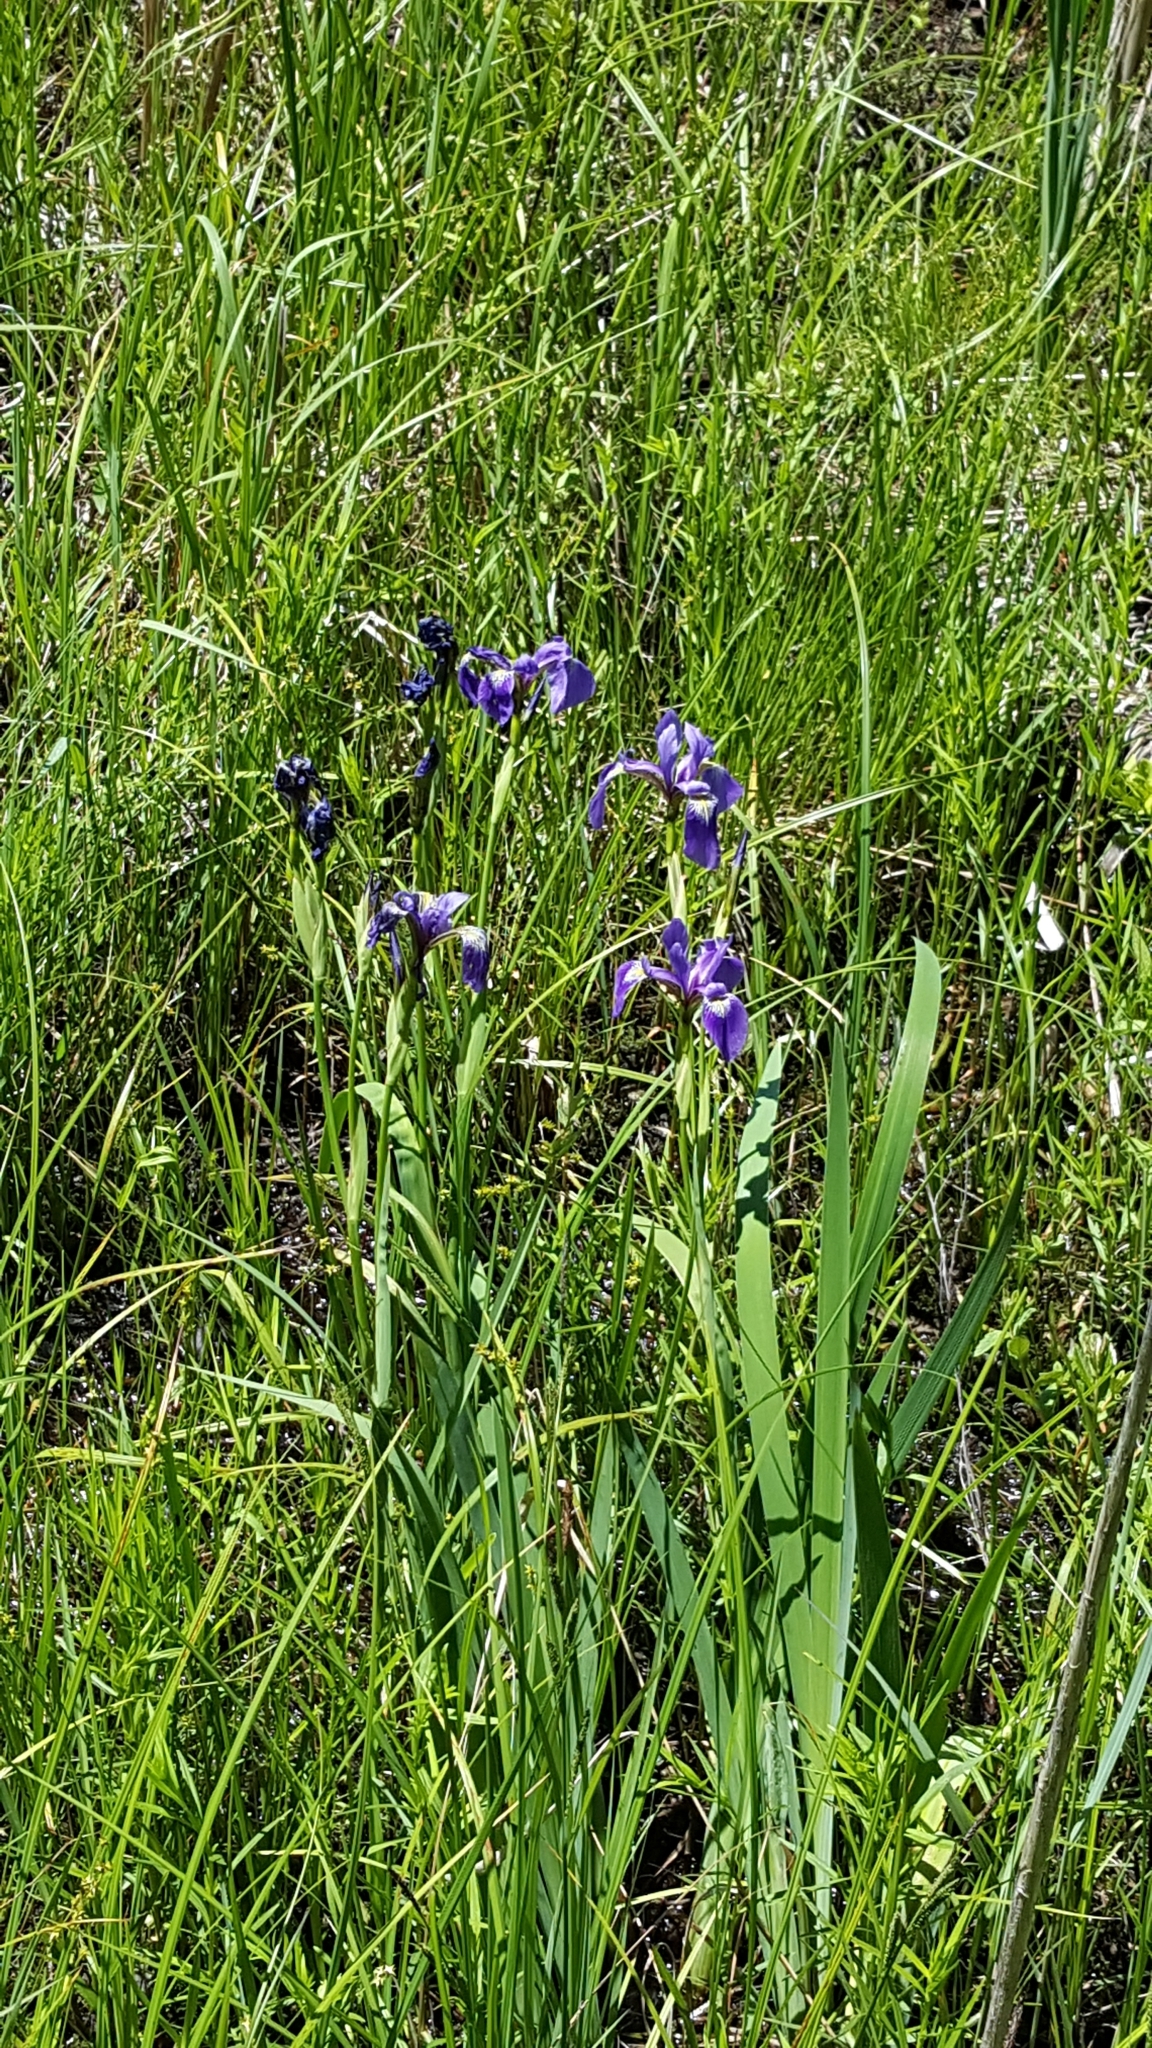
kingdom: Plantae
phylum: Tracheophyta
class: Liliopsida
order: Asparagales
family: Iridaceae
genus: Iris
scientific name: Iris versicolor
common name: Purple iris
